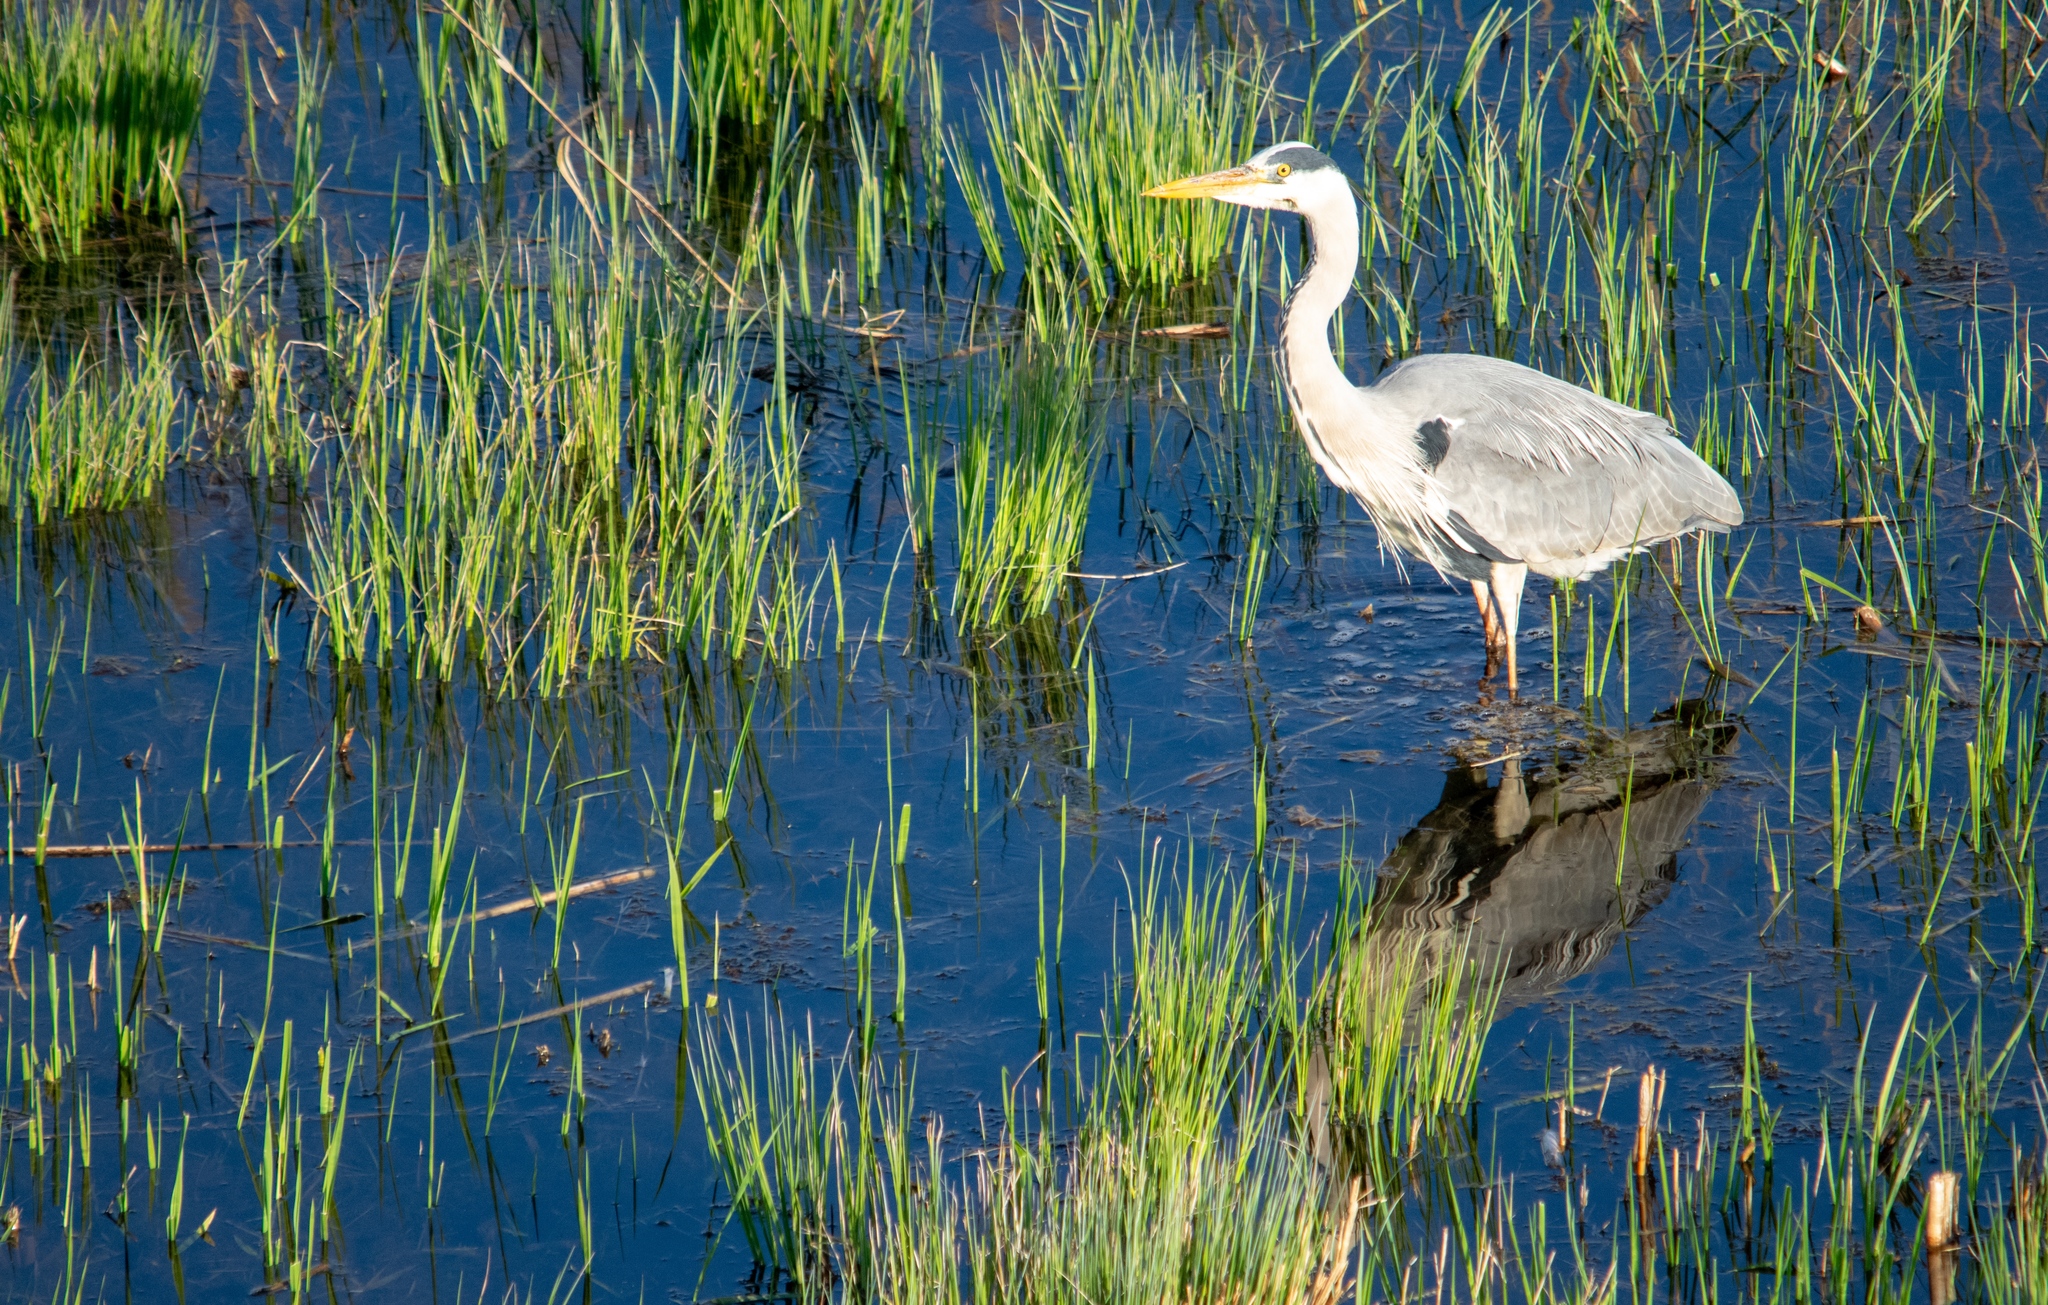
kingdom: Animalia
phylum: Chordata
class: Aves
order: Pelecaniformes
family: Ardeidae
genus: Ardea
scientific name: Ardea cinerea
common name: Grey heron
